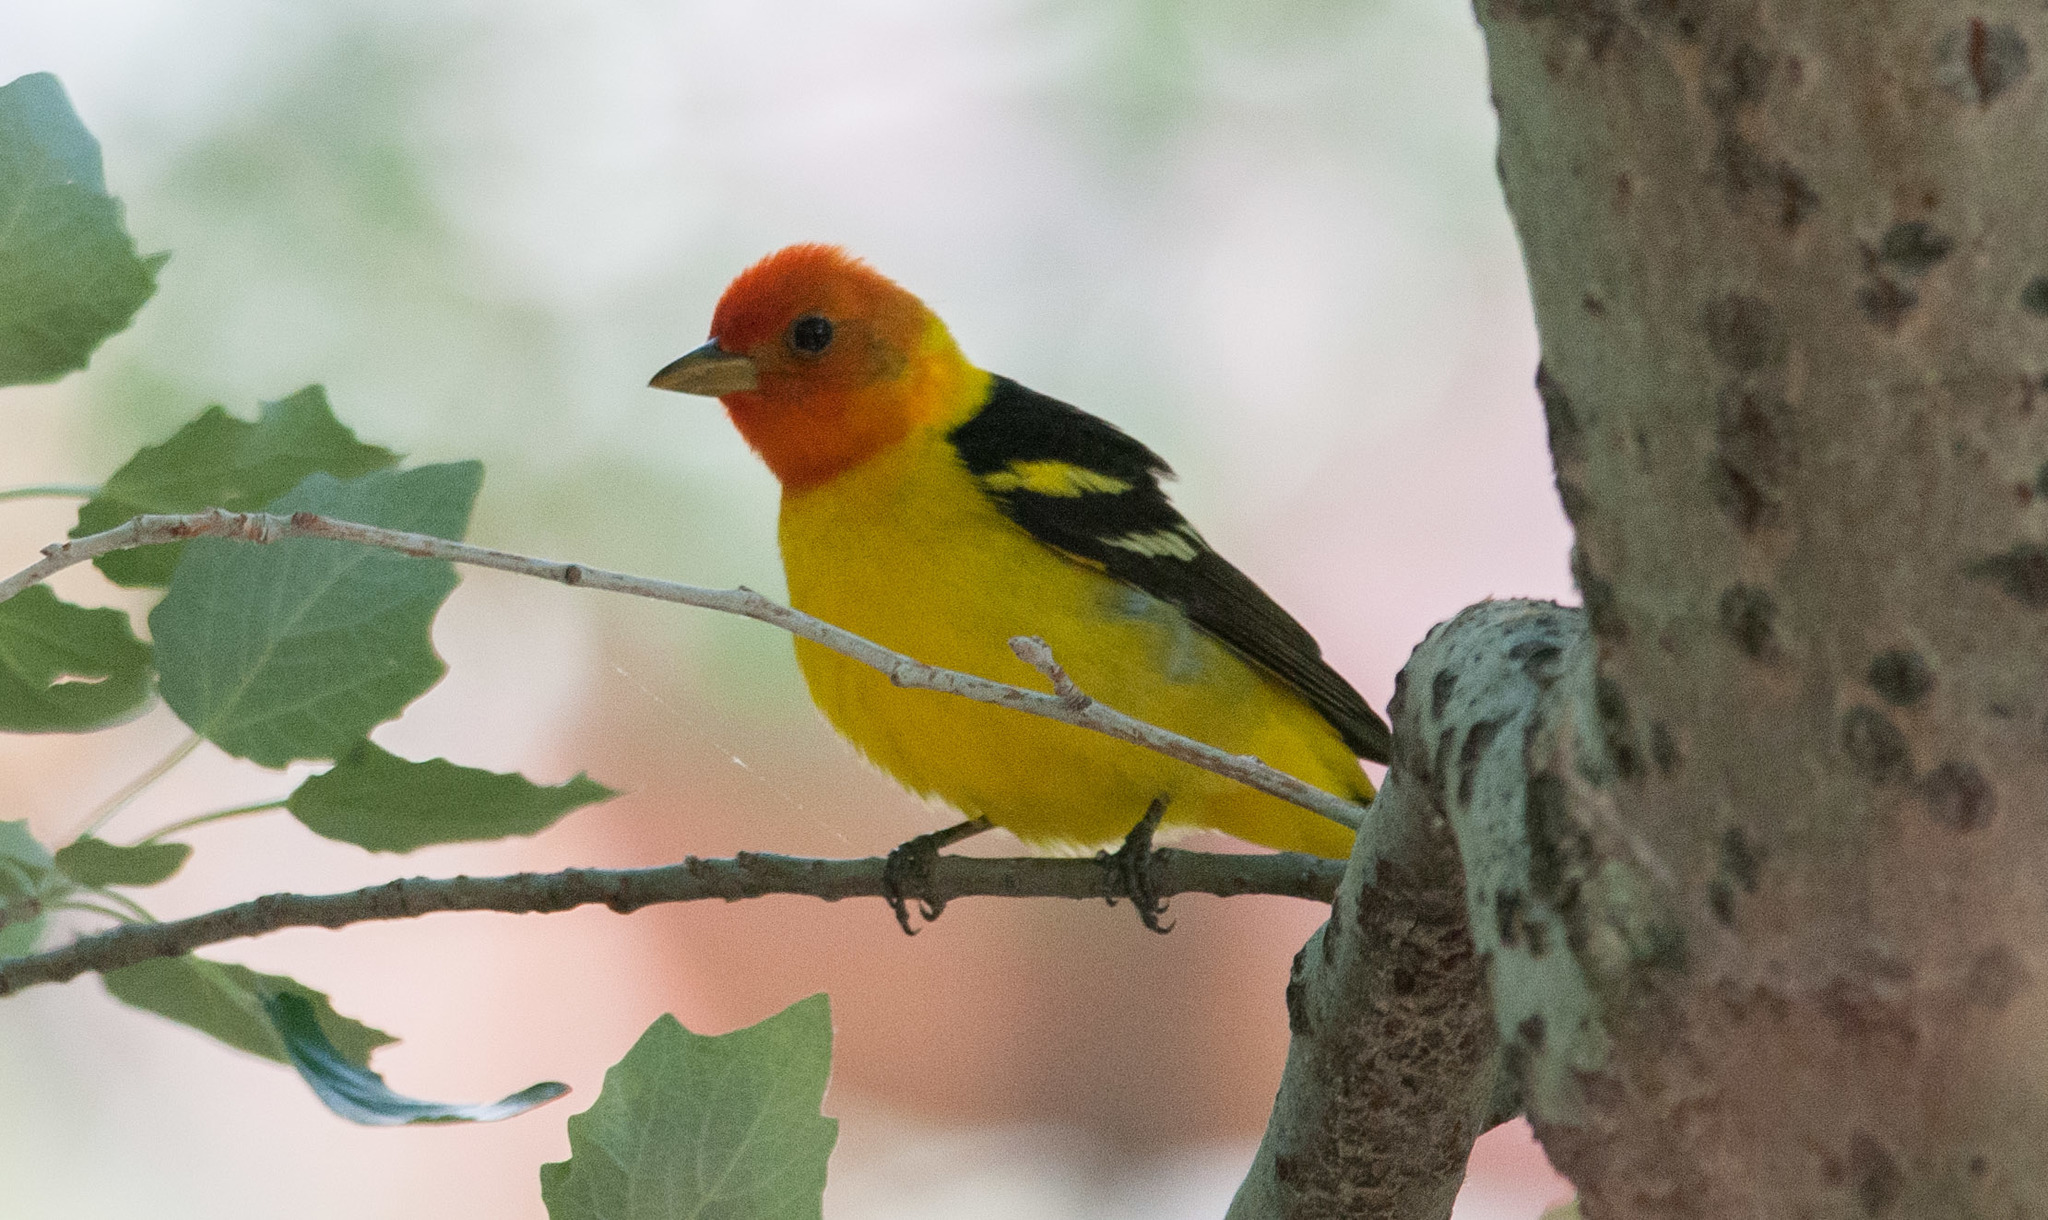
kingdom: Animalia
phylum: Chordata
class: Aves
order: Passeriformes
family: Cardinalidae
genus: Piranga
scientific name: Piranga ludoviciana
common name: Western tanager
